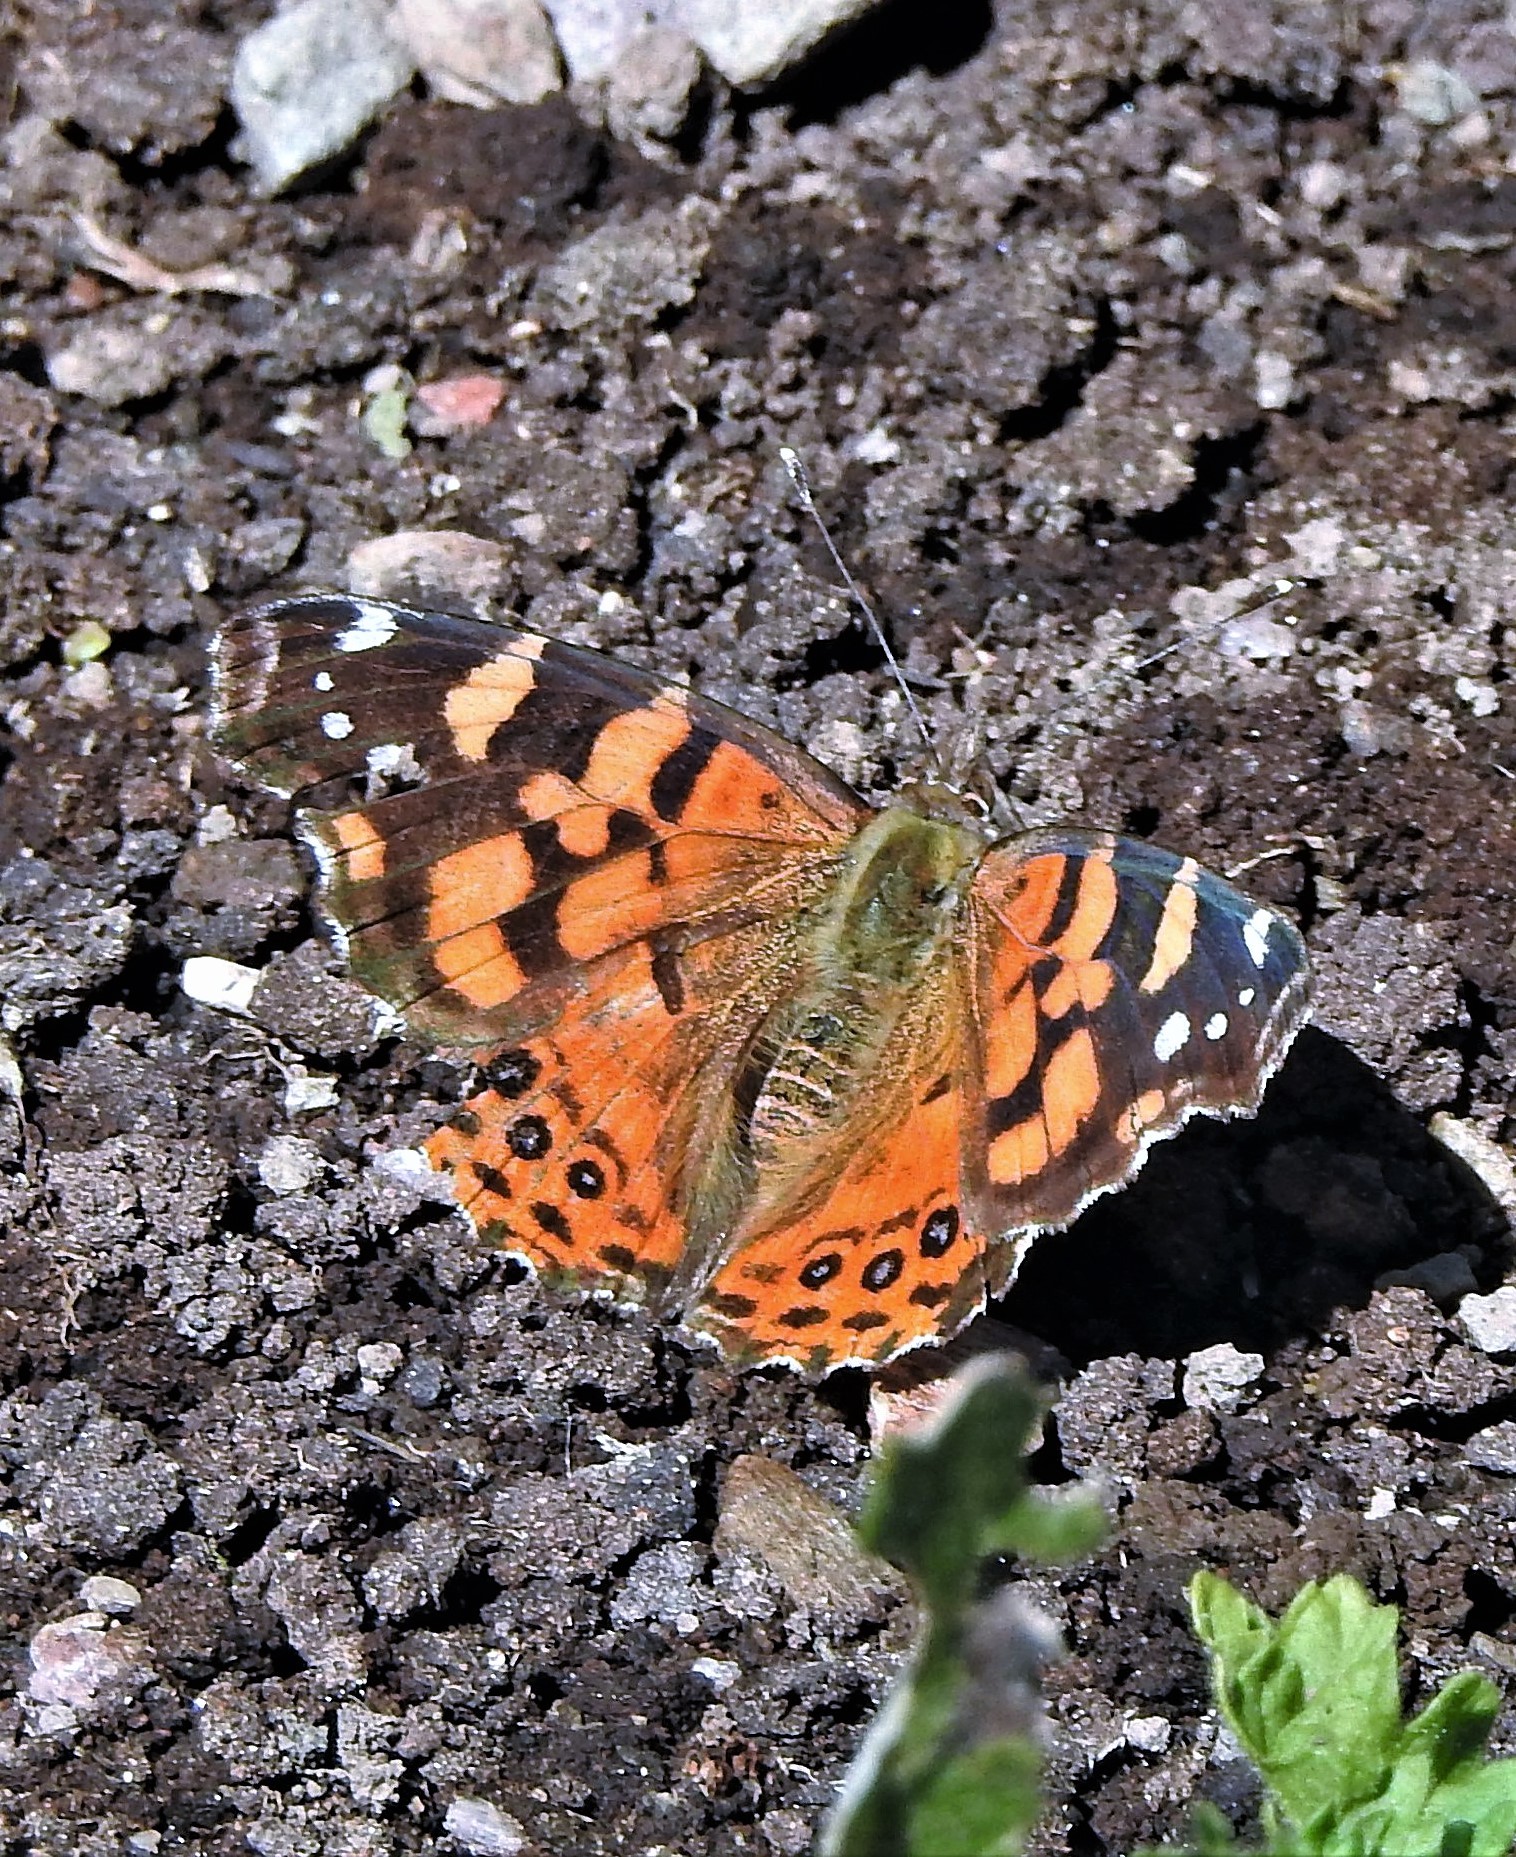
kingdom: Animalia
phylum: Arthropoda
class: Insecta
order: Lepidoptera
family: Nymphalidae
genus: Vanessa
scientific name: Vanessa carye
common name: Subtropical lady
